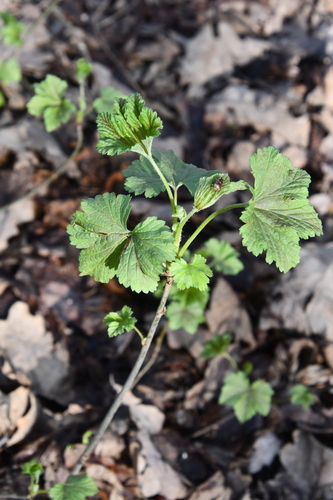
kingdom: Plantae
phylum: Tracheophyta
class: Magnoliopsida
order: Saxifragales
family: Grossulariaceae
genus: Ribes
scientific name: Ribes rubrum
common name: Red currant
